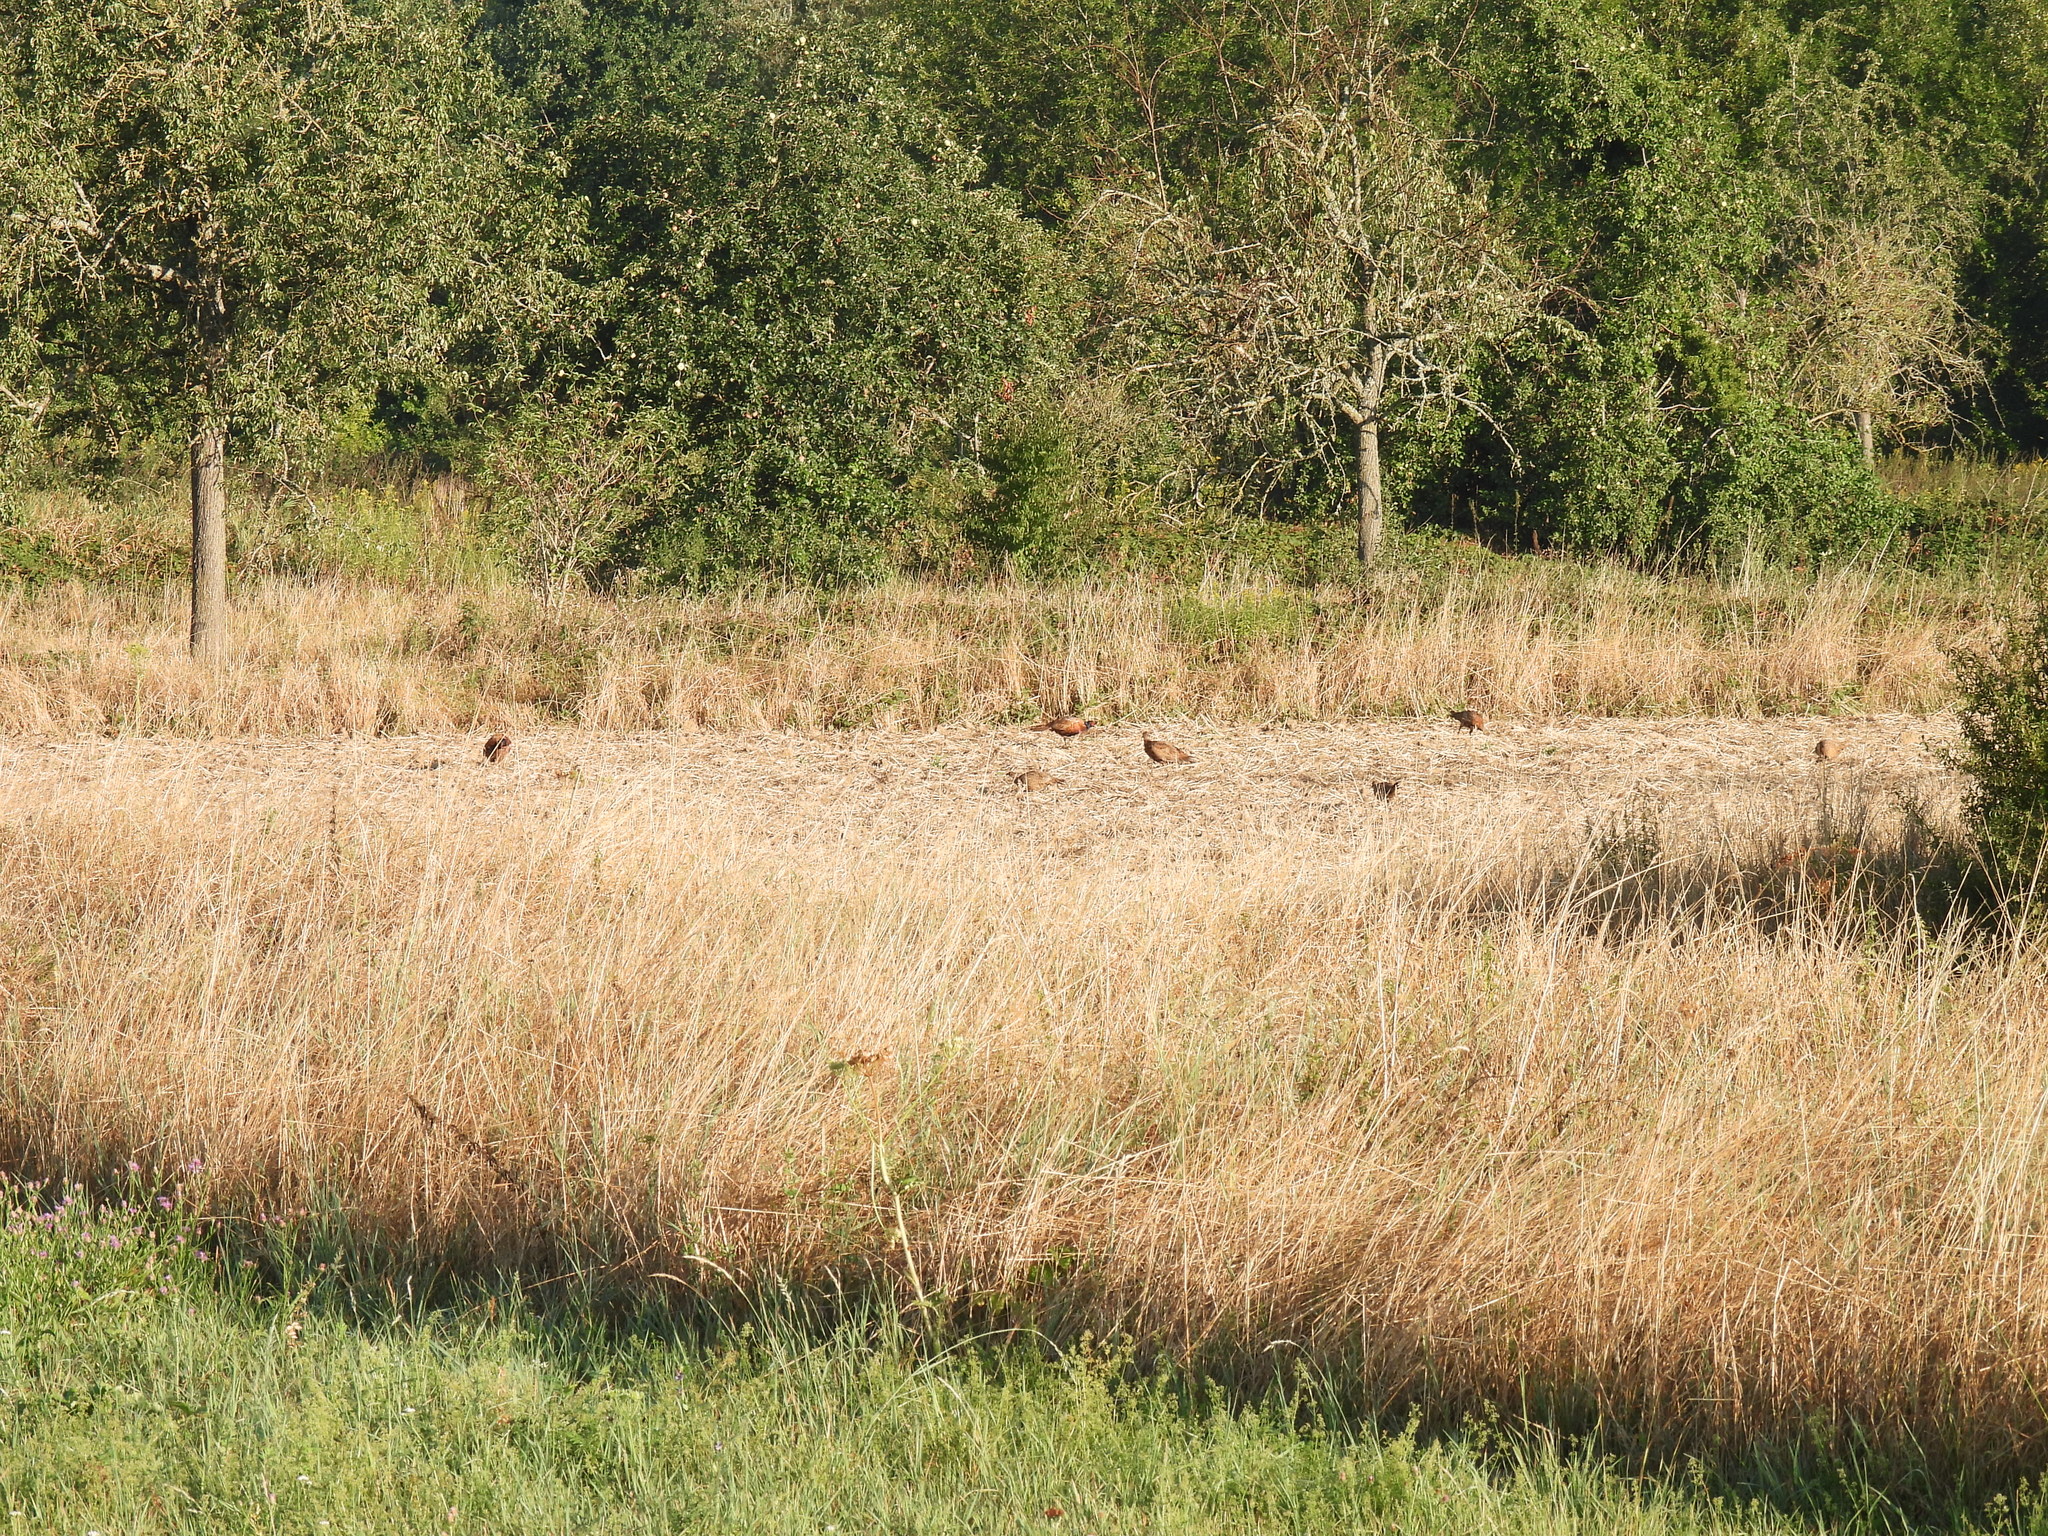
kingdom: Animalia
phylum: Chordata
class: Aves
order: Galliformes
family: Phasianidae
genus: Phasianus
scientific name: Phasianus colchicus
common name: Common pheasant
